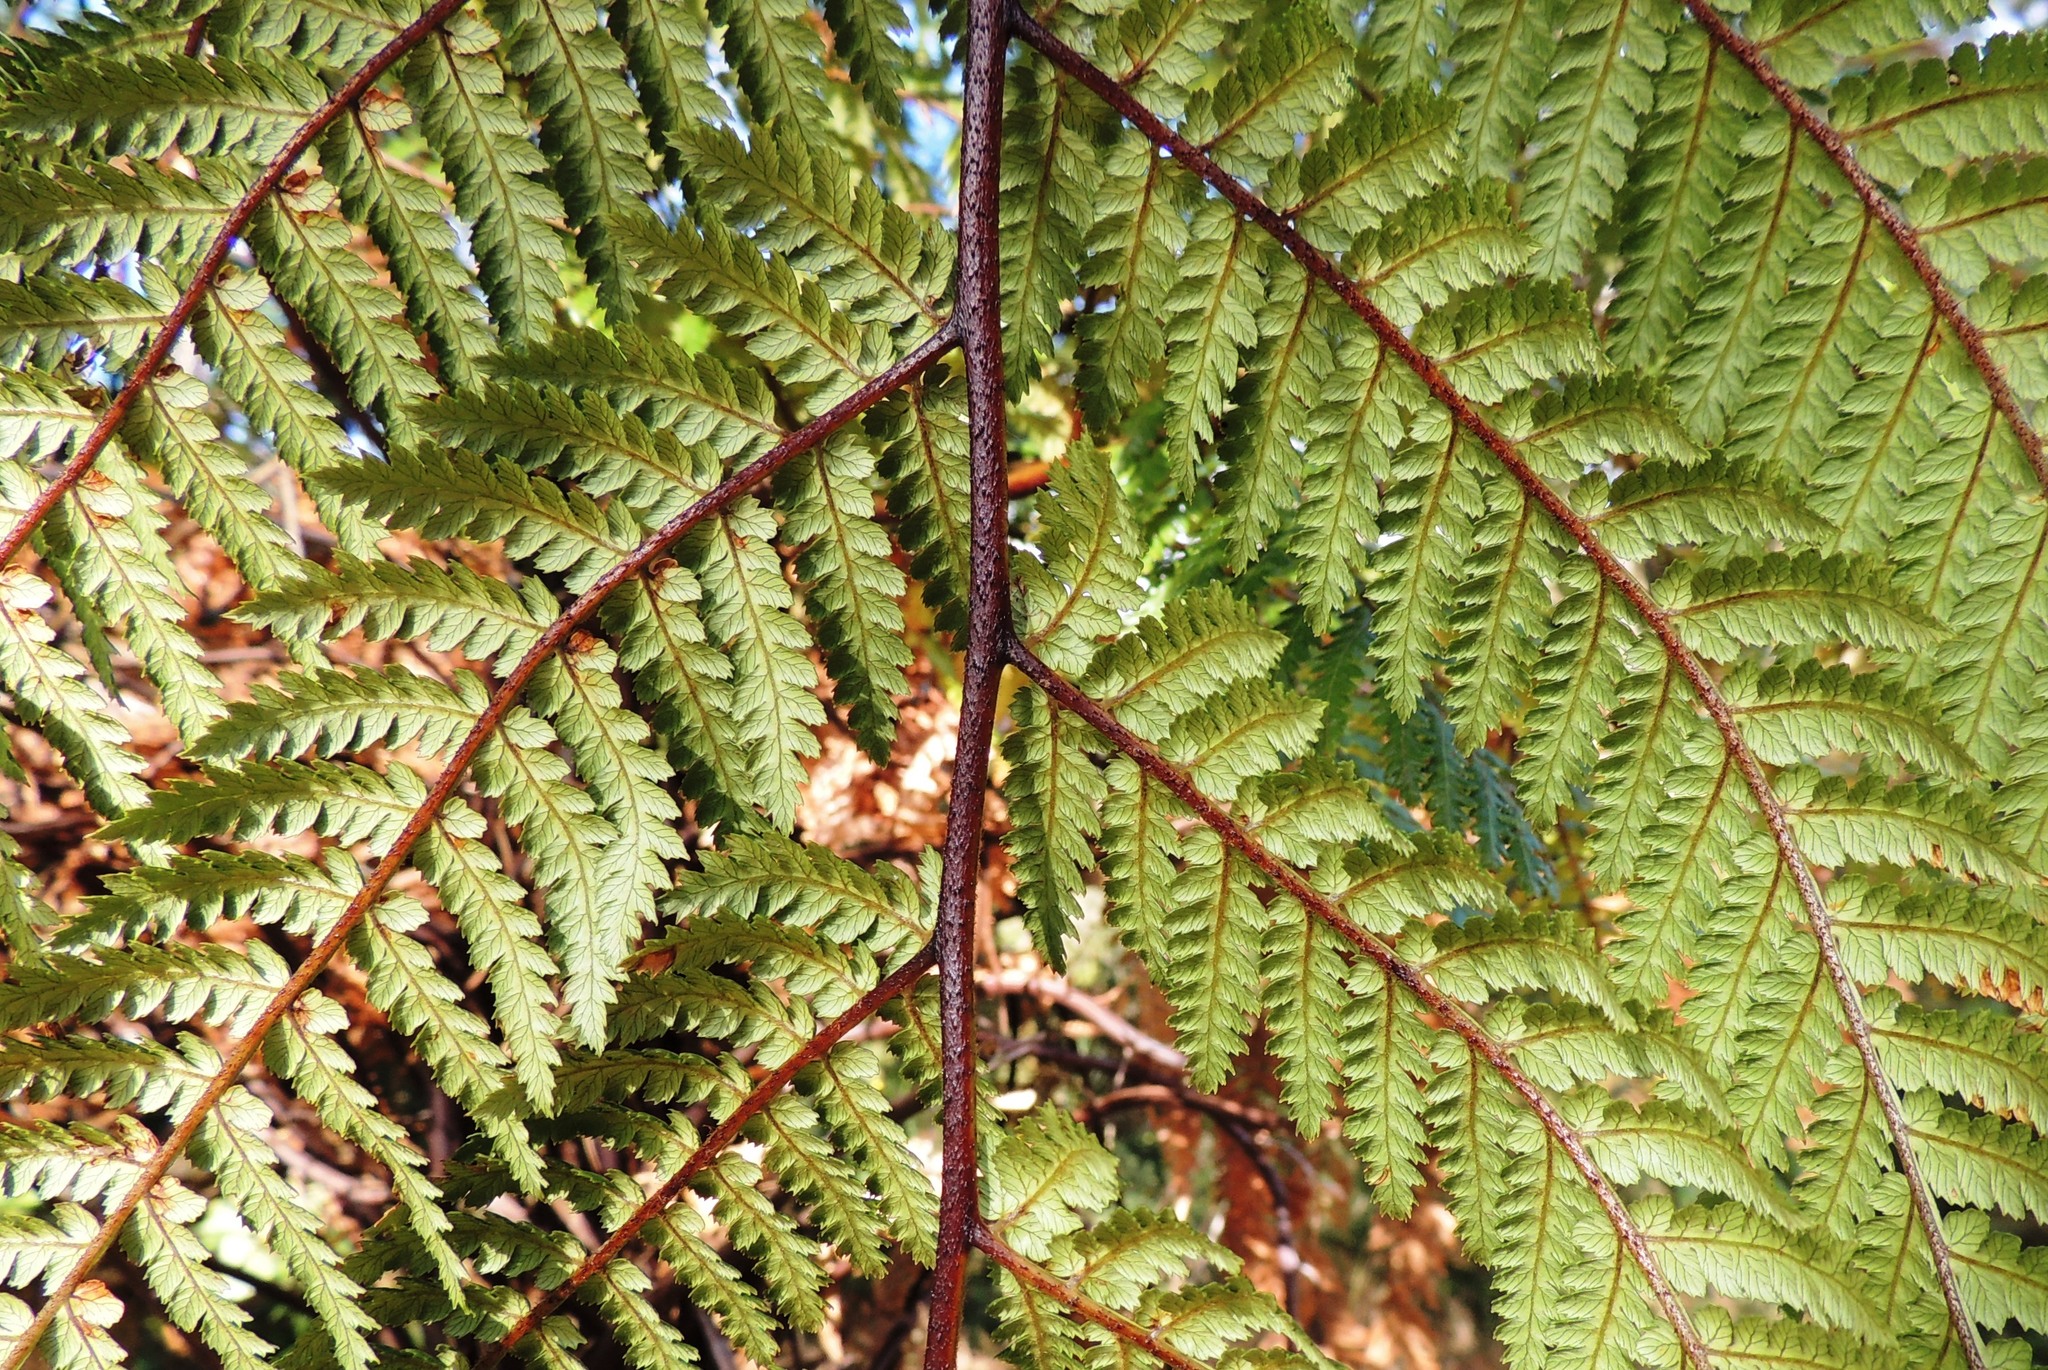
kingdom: Plantae
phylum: Tracheophyta
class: Polypodiopsida
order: Cyatheales
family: Dicksoniaceae
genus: Dicksonia
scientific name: Dicksonia squarrosa
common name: Hard treefern
